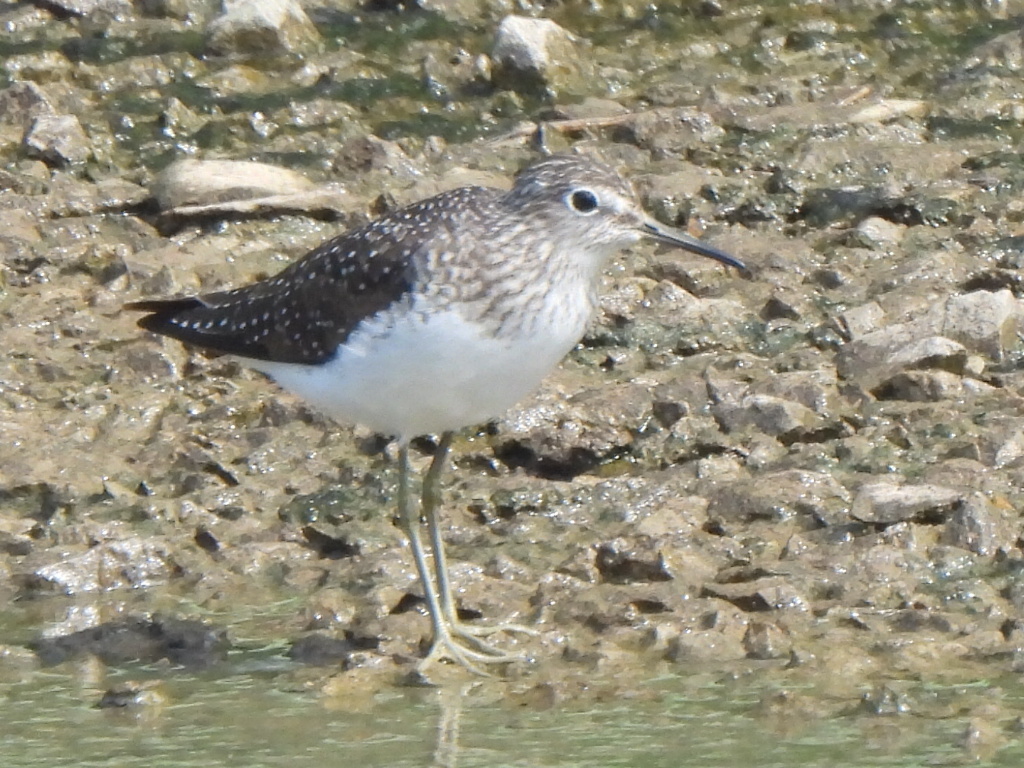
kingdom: Animalia
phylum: Chordata
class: Aves
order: Charadriiformes
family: Scolopacidae
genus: Tringa
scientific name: Tringa solitaria
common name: Solitary sandpiper
